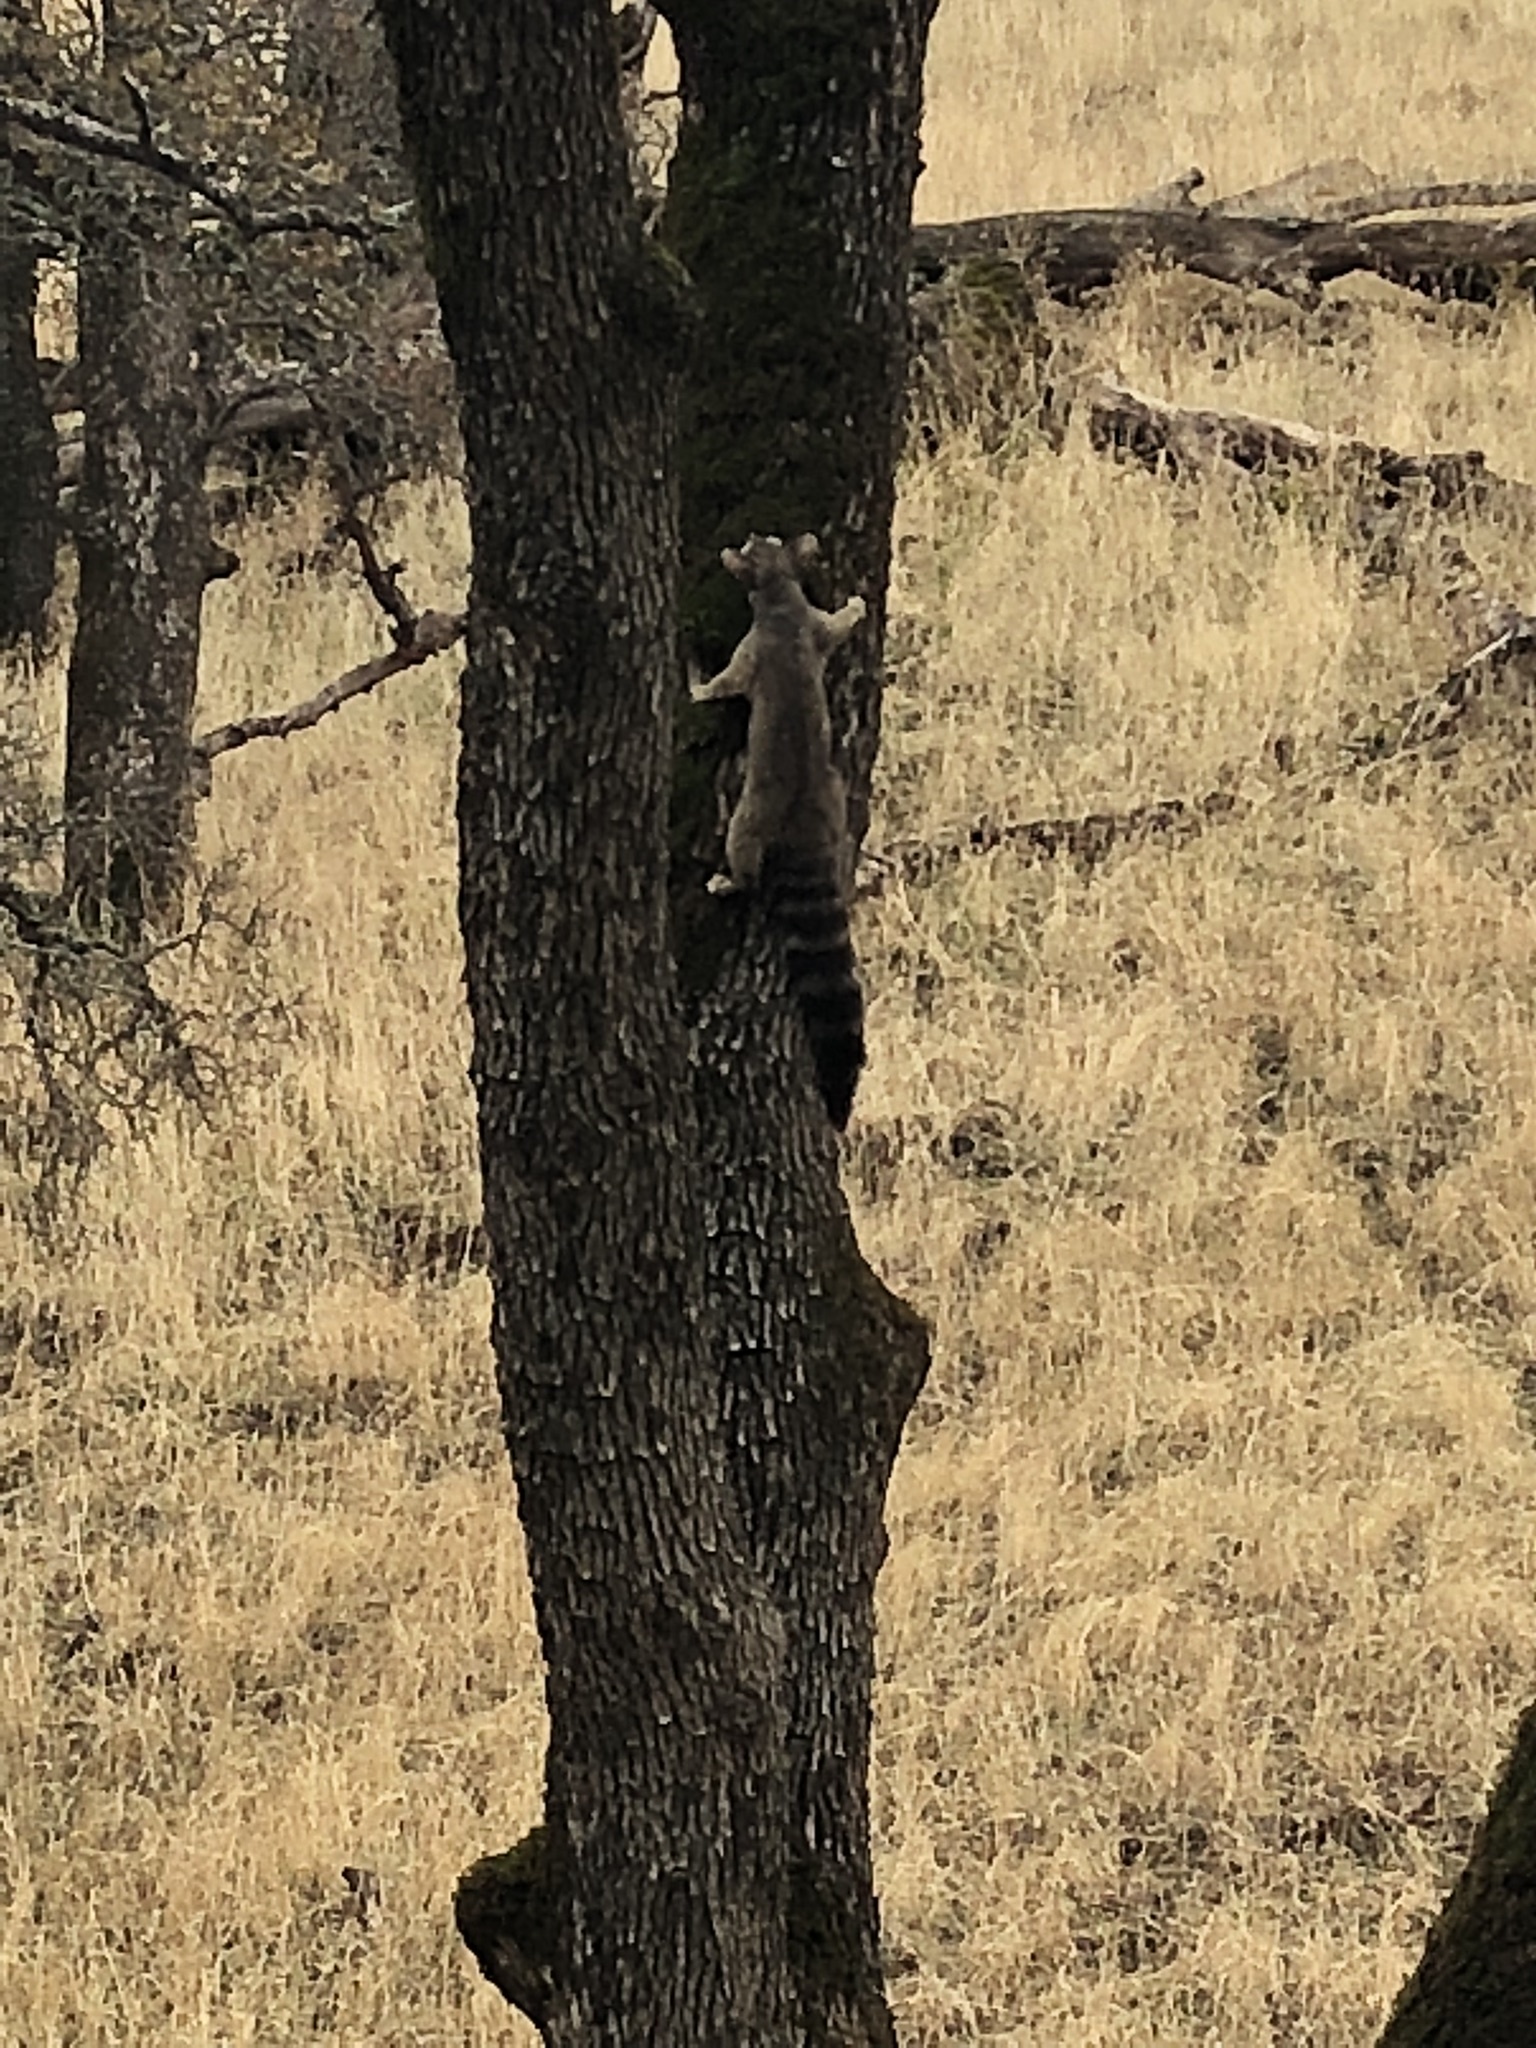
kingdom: Animalia
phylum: Chordata
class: Mammalia
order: Carnivora
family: Procyonidae
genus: Bassariscus
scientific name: Bassariscus astutus
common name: Ringtail
